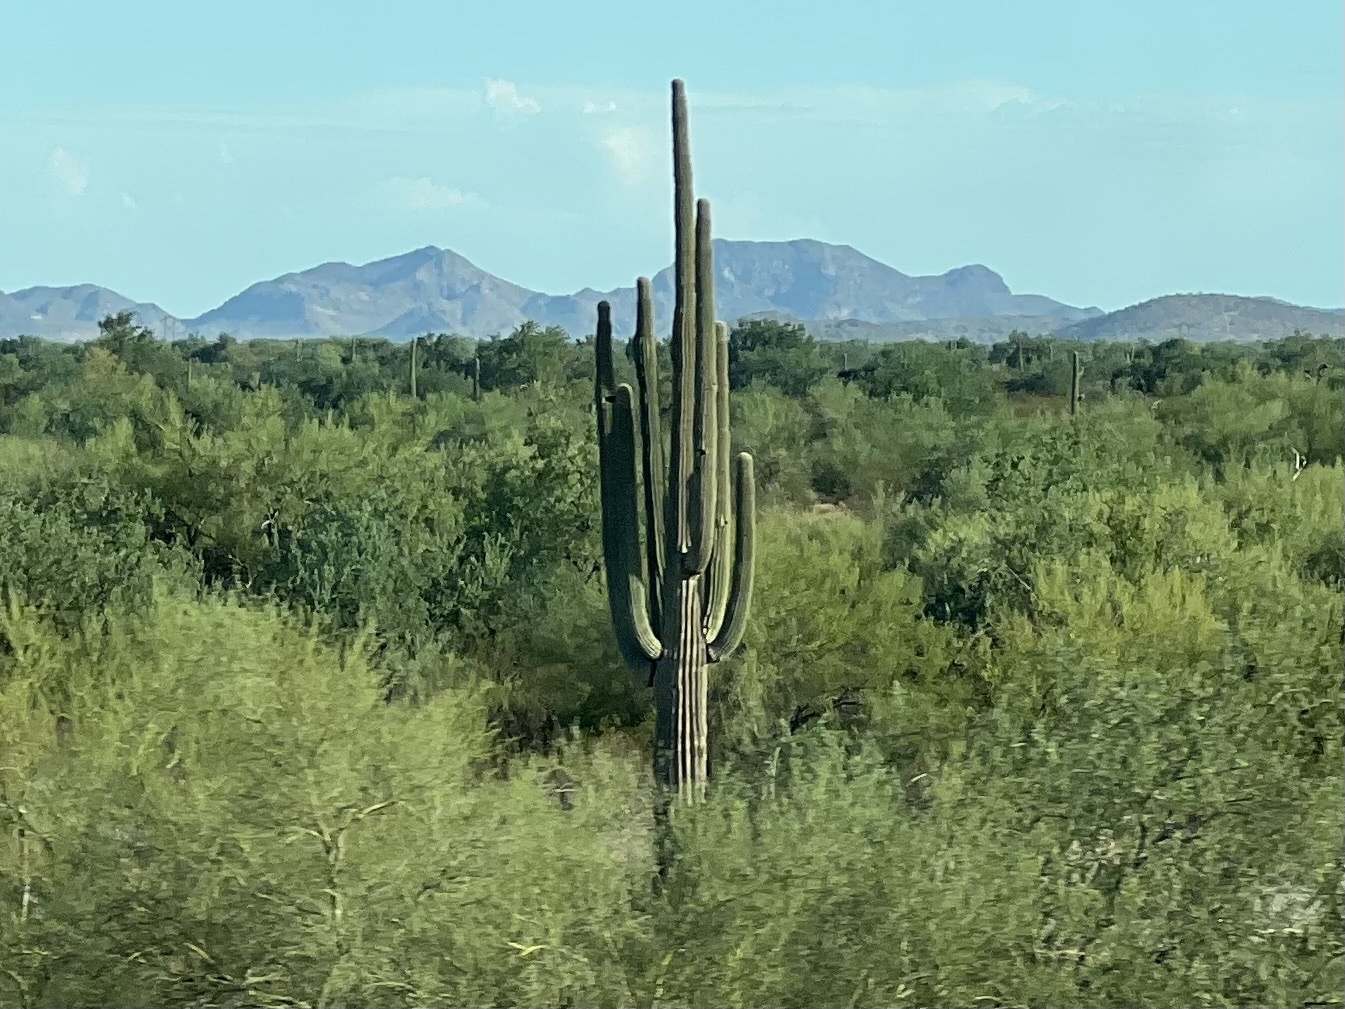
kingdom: Plantae
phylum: Tracheophyta
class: Magnoliopsida
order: Caryophyllales
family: Cactaceae
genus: Carnegiea
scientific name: Carnegiea gigantea
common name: Saguaro
